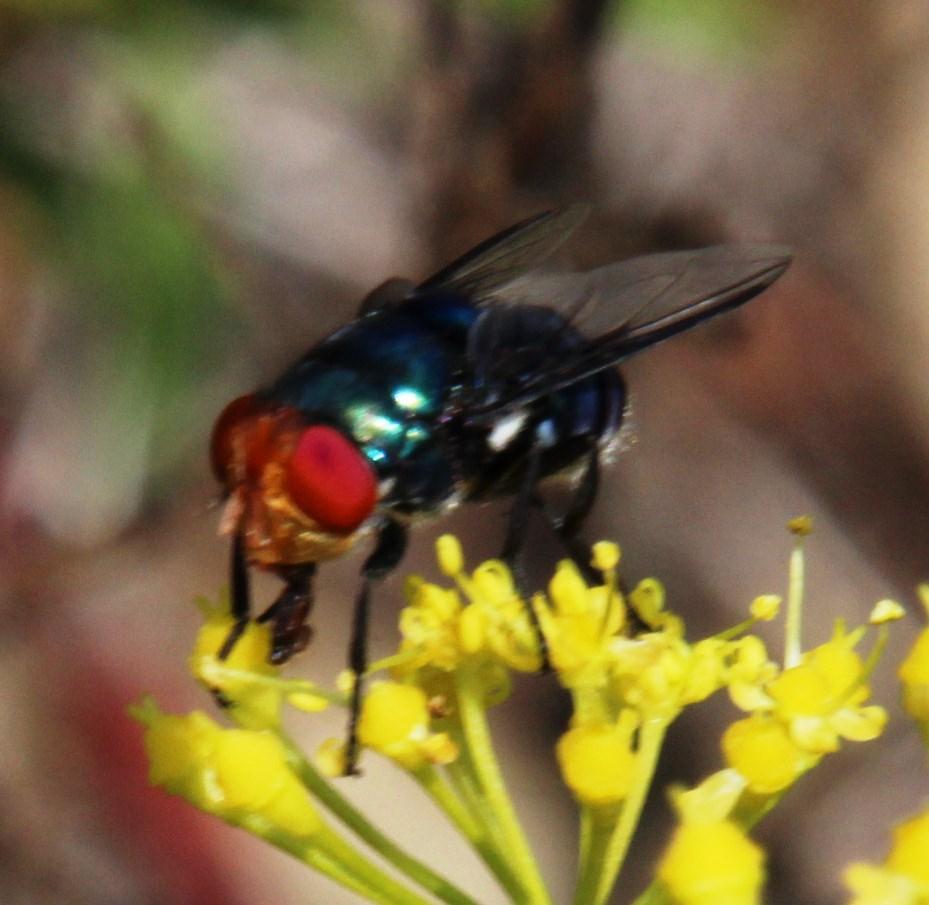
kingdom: Animalia
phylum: Arthropoda
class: Insecta
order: Diptera
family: Calliphoridae
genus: Chrysomya
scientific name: Chrysomya marginalis
